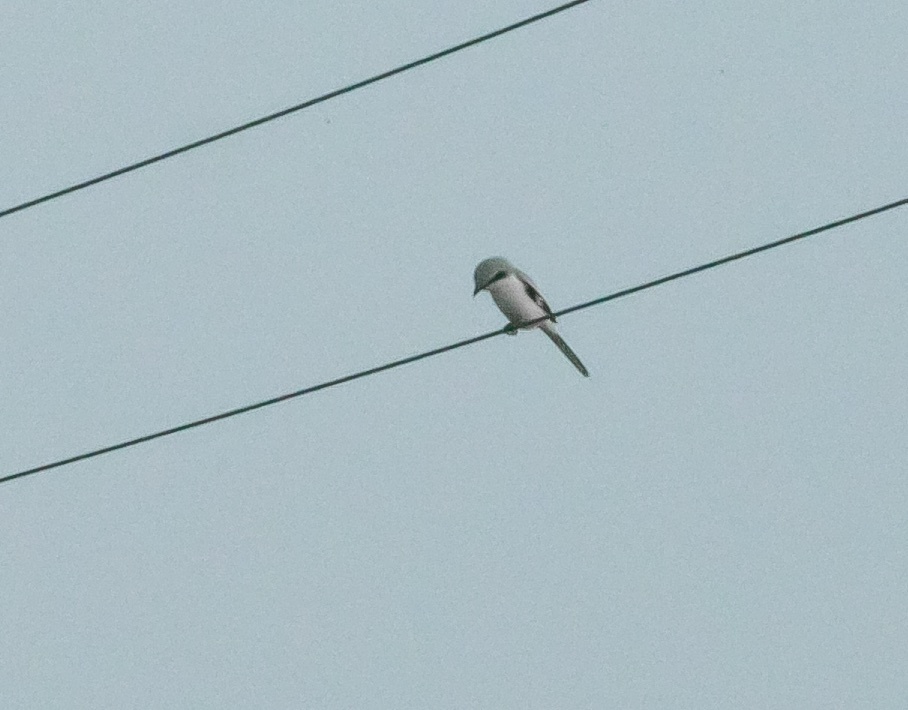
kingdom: Animalia
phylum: Chordata
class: Aves
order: Passeriformes
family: Laniidae
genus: Lanius
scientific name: Lanius excubitor
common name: Great grey shrike
